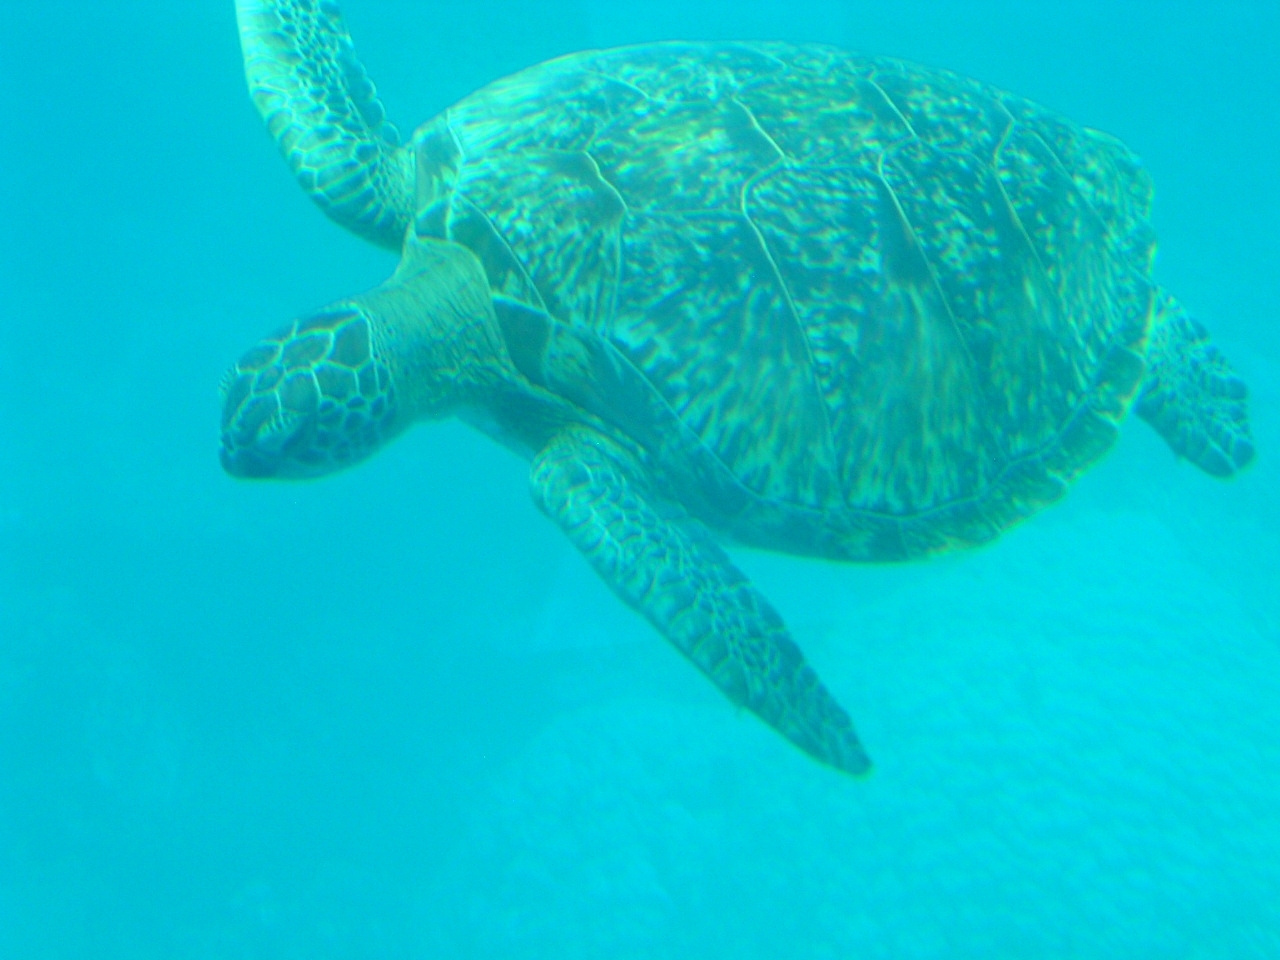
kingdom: Animalia
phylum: Chordata
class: Testudines
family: Cheloniidae
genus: Chelonia
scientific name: Chelonia mydas
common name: Green turtle
